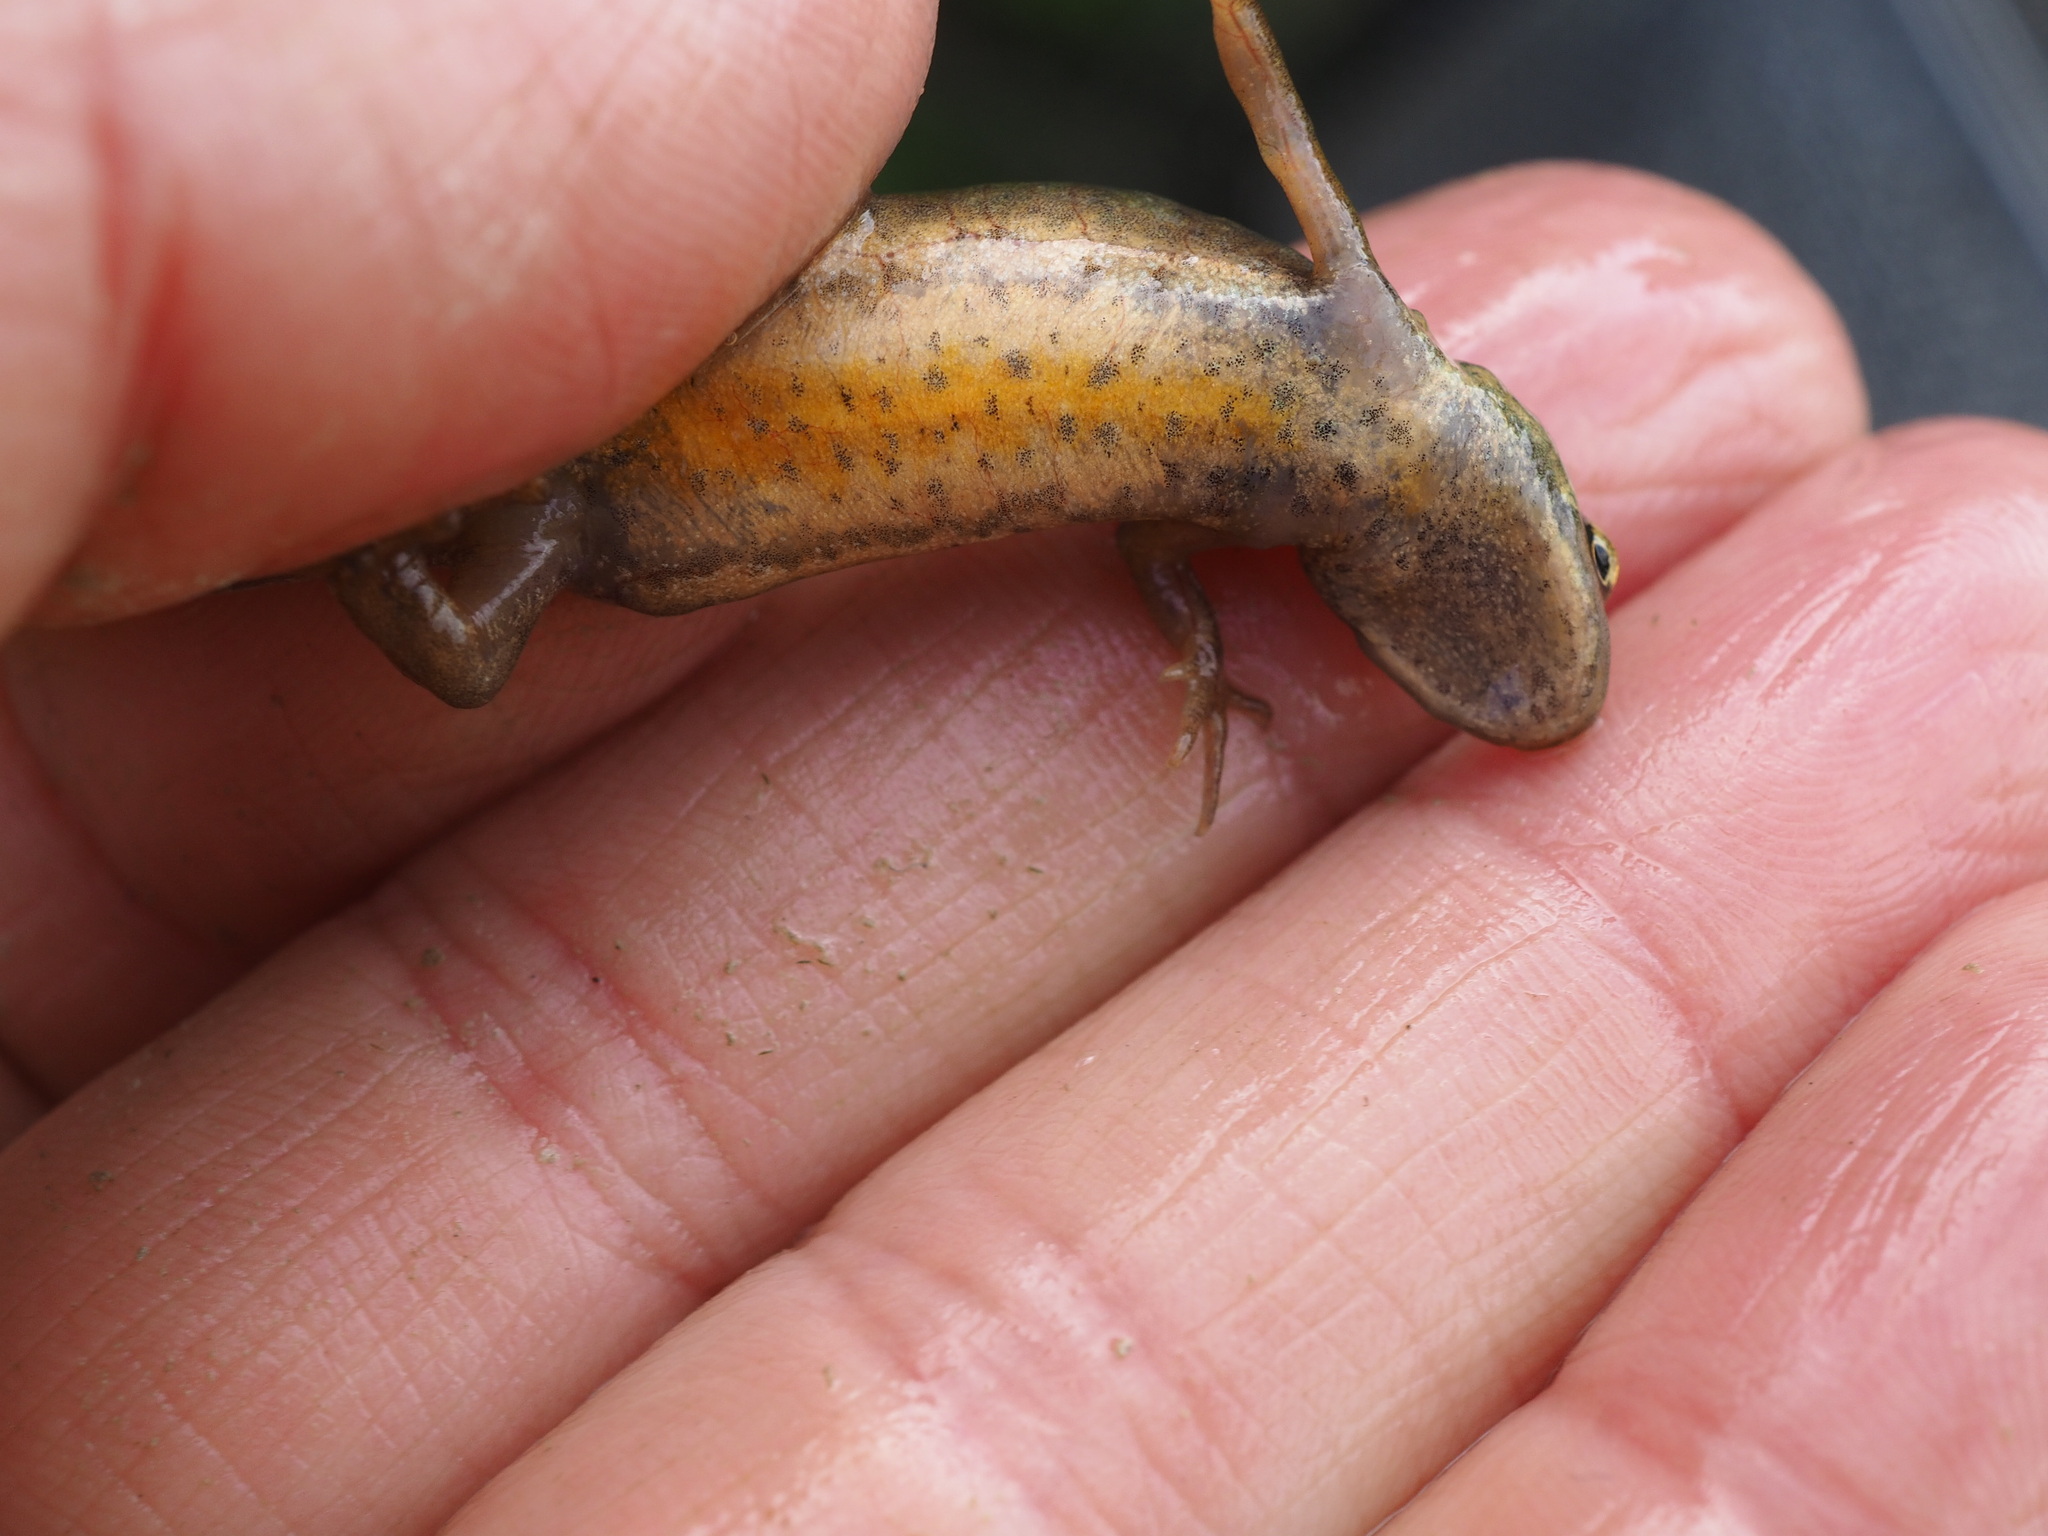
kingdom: Animalia
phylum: Chordata
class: Amphibia
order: Caudata
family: Salamandridae
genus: Lissotriton
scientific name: Lissotriton helveticus
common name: Palmate newt
